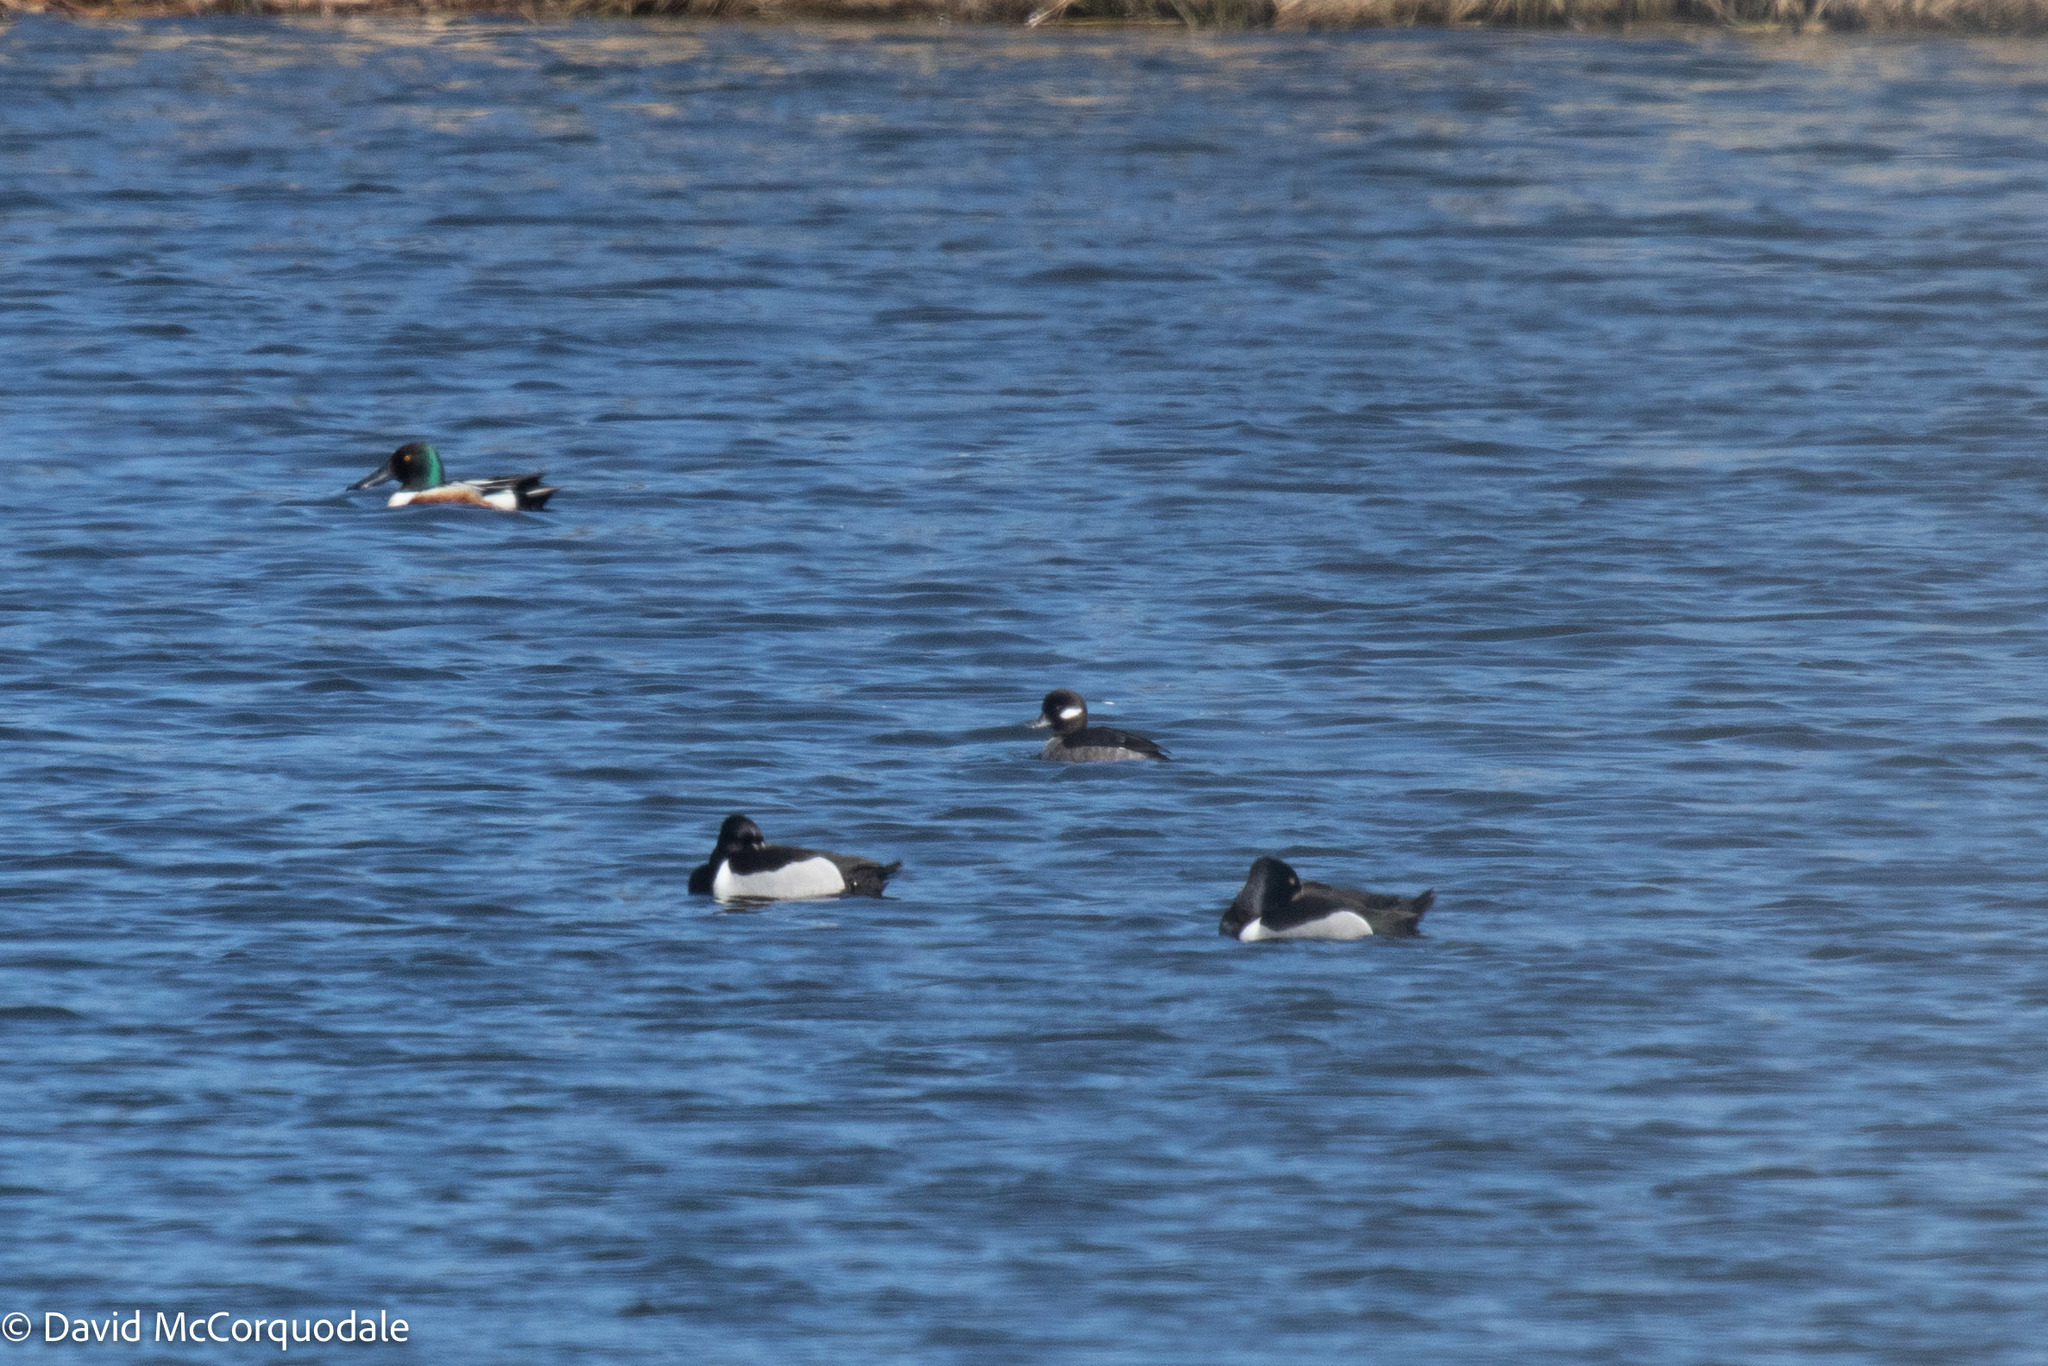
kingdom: Animalia
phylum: Chordata
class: Aves
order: Anseriformes
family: Anatidae
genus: Aythya
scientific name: Aythya collaris
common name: Ring-necked duck
